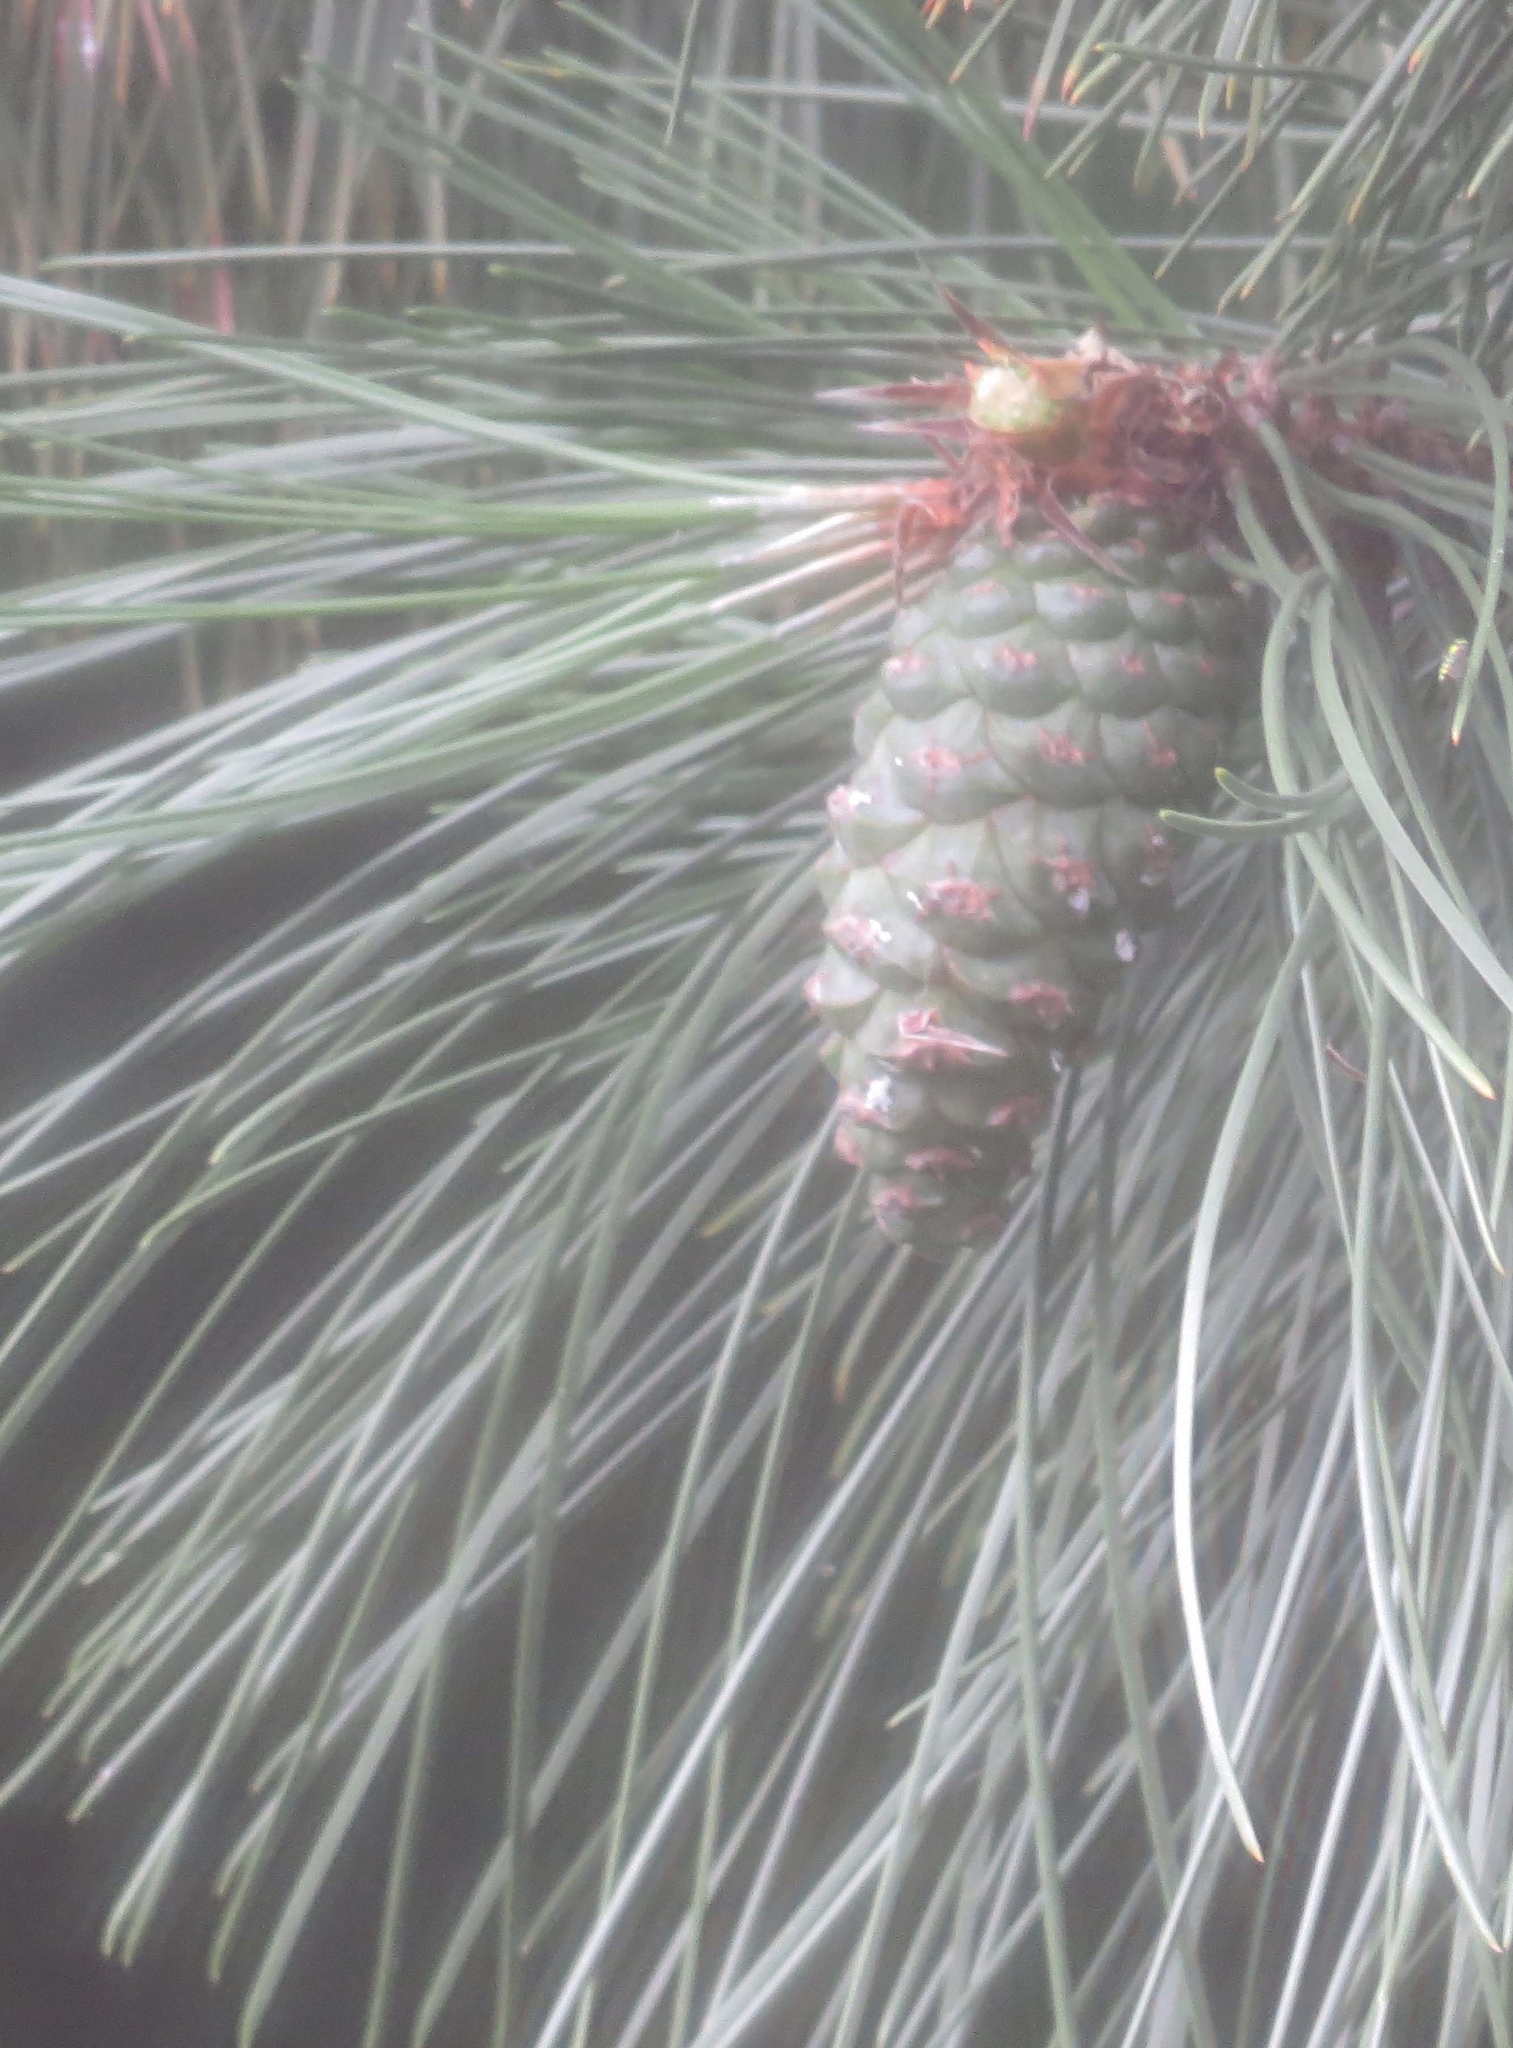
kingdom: Animalia
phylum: Chordata
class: Mammalia
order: Rodentia
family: Sciuridae
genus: Sciurus
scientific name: Sciurus carolinensis
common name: Eastern gray squirrel
